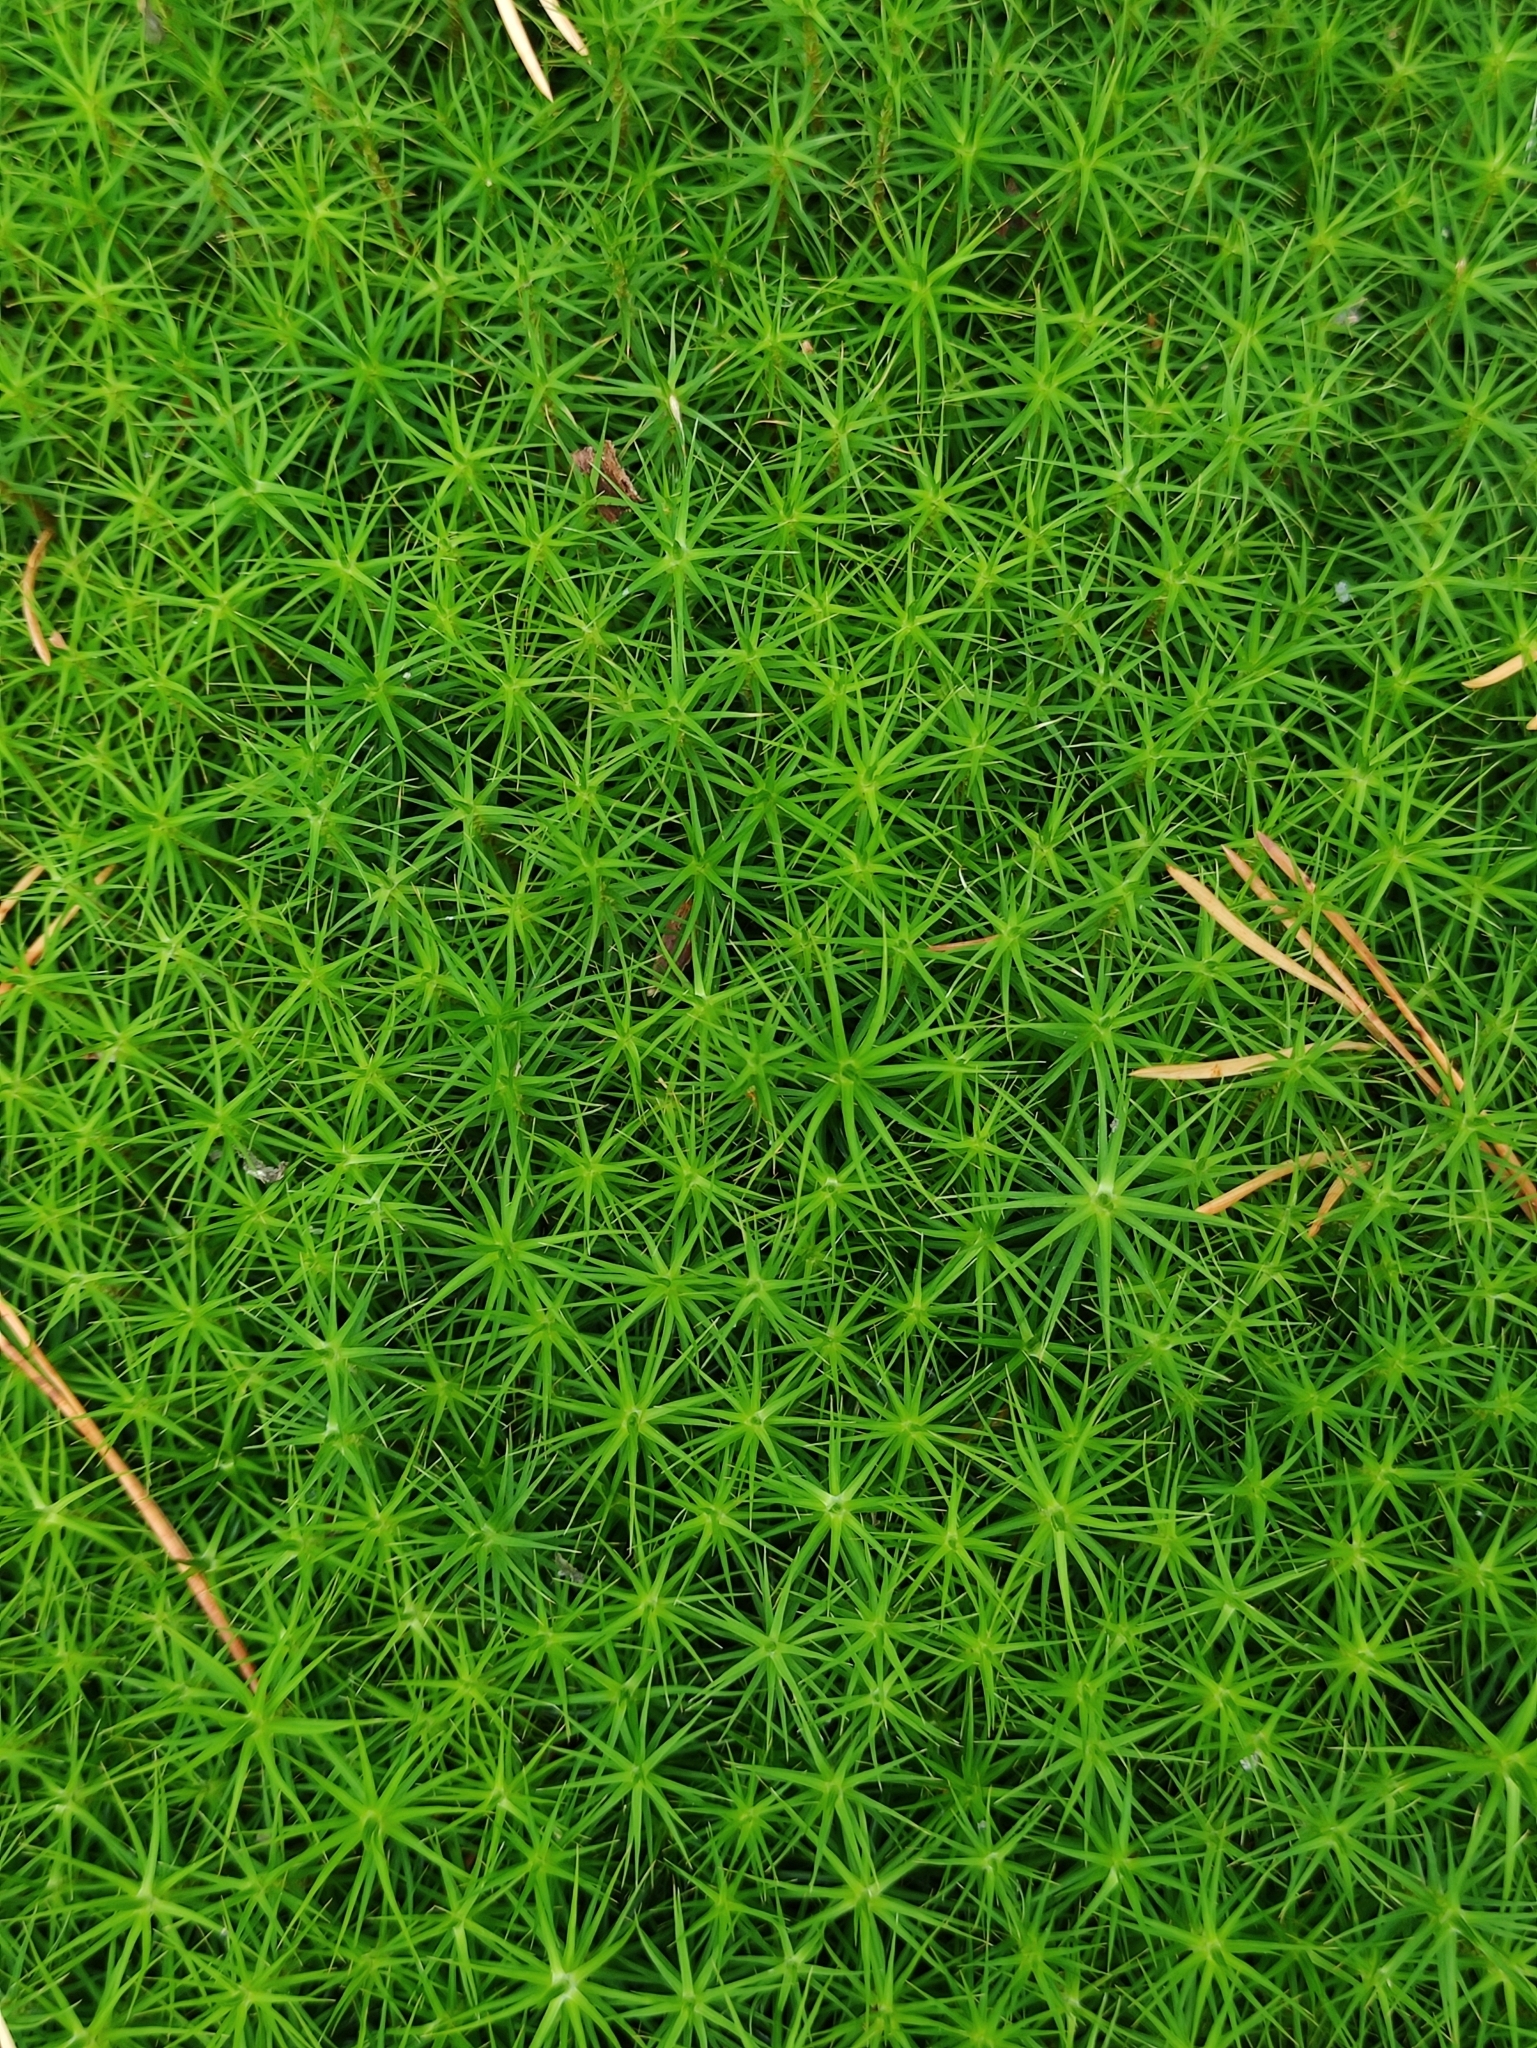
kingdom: Plantae
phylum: Bryophyta
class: Polytrichopsida
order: Polytrichales
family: Polytrichaceae
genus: Polytrichum
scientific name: Polytrichum commune
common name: Common haircap
